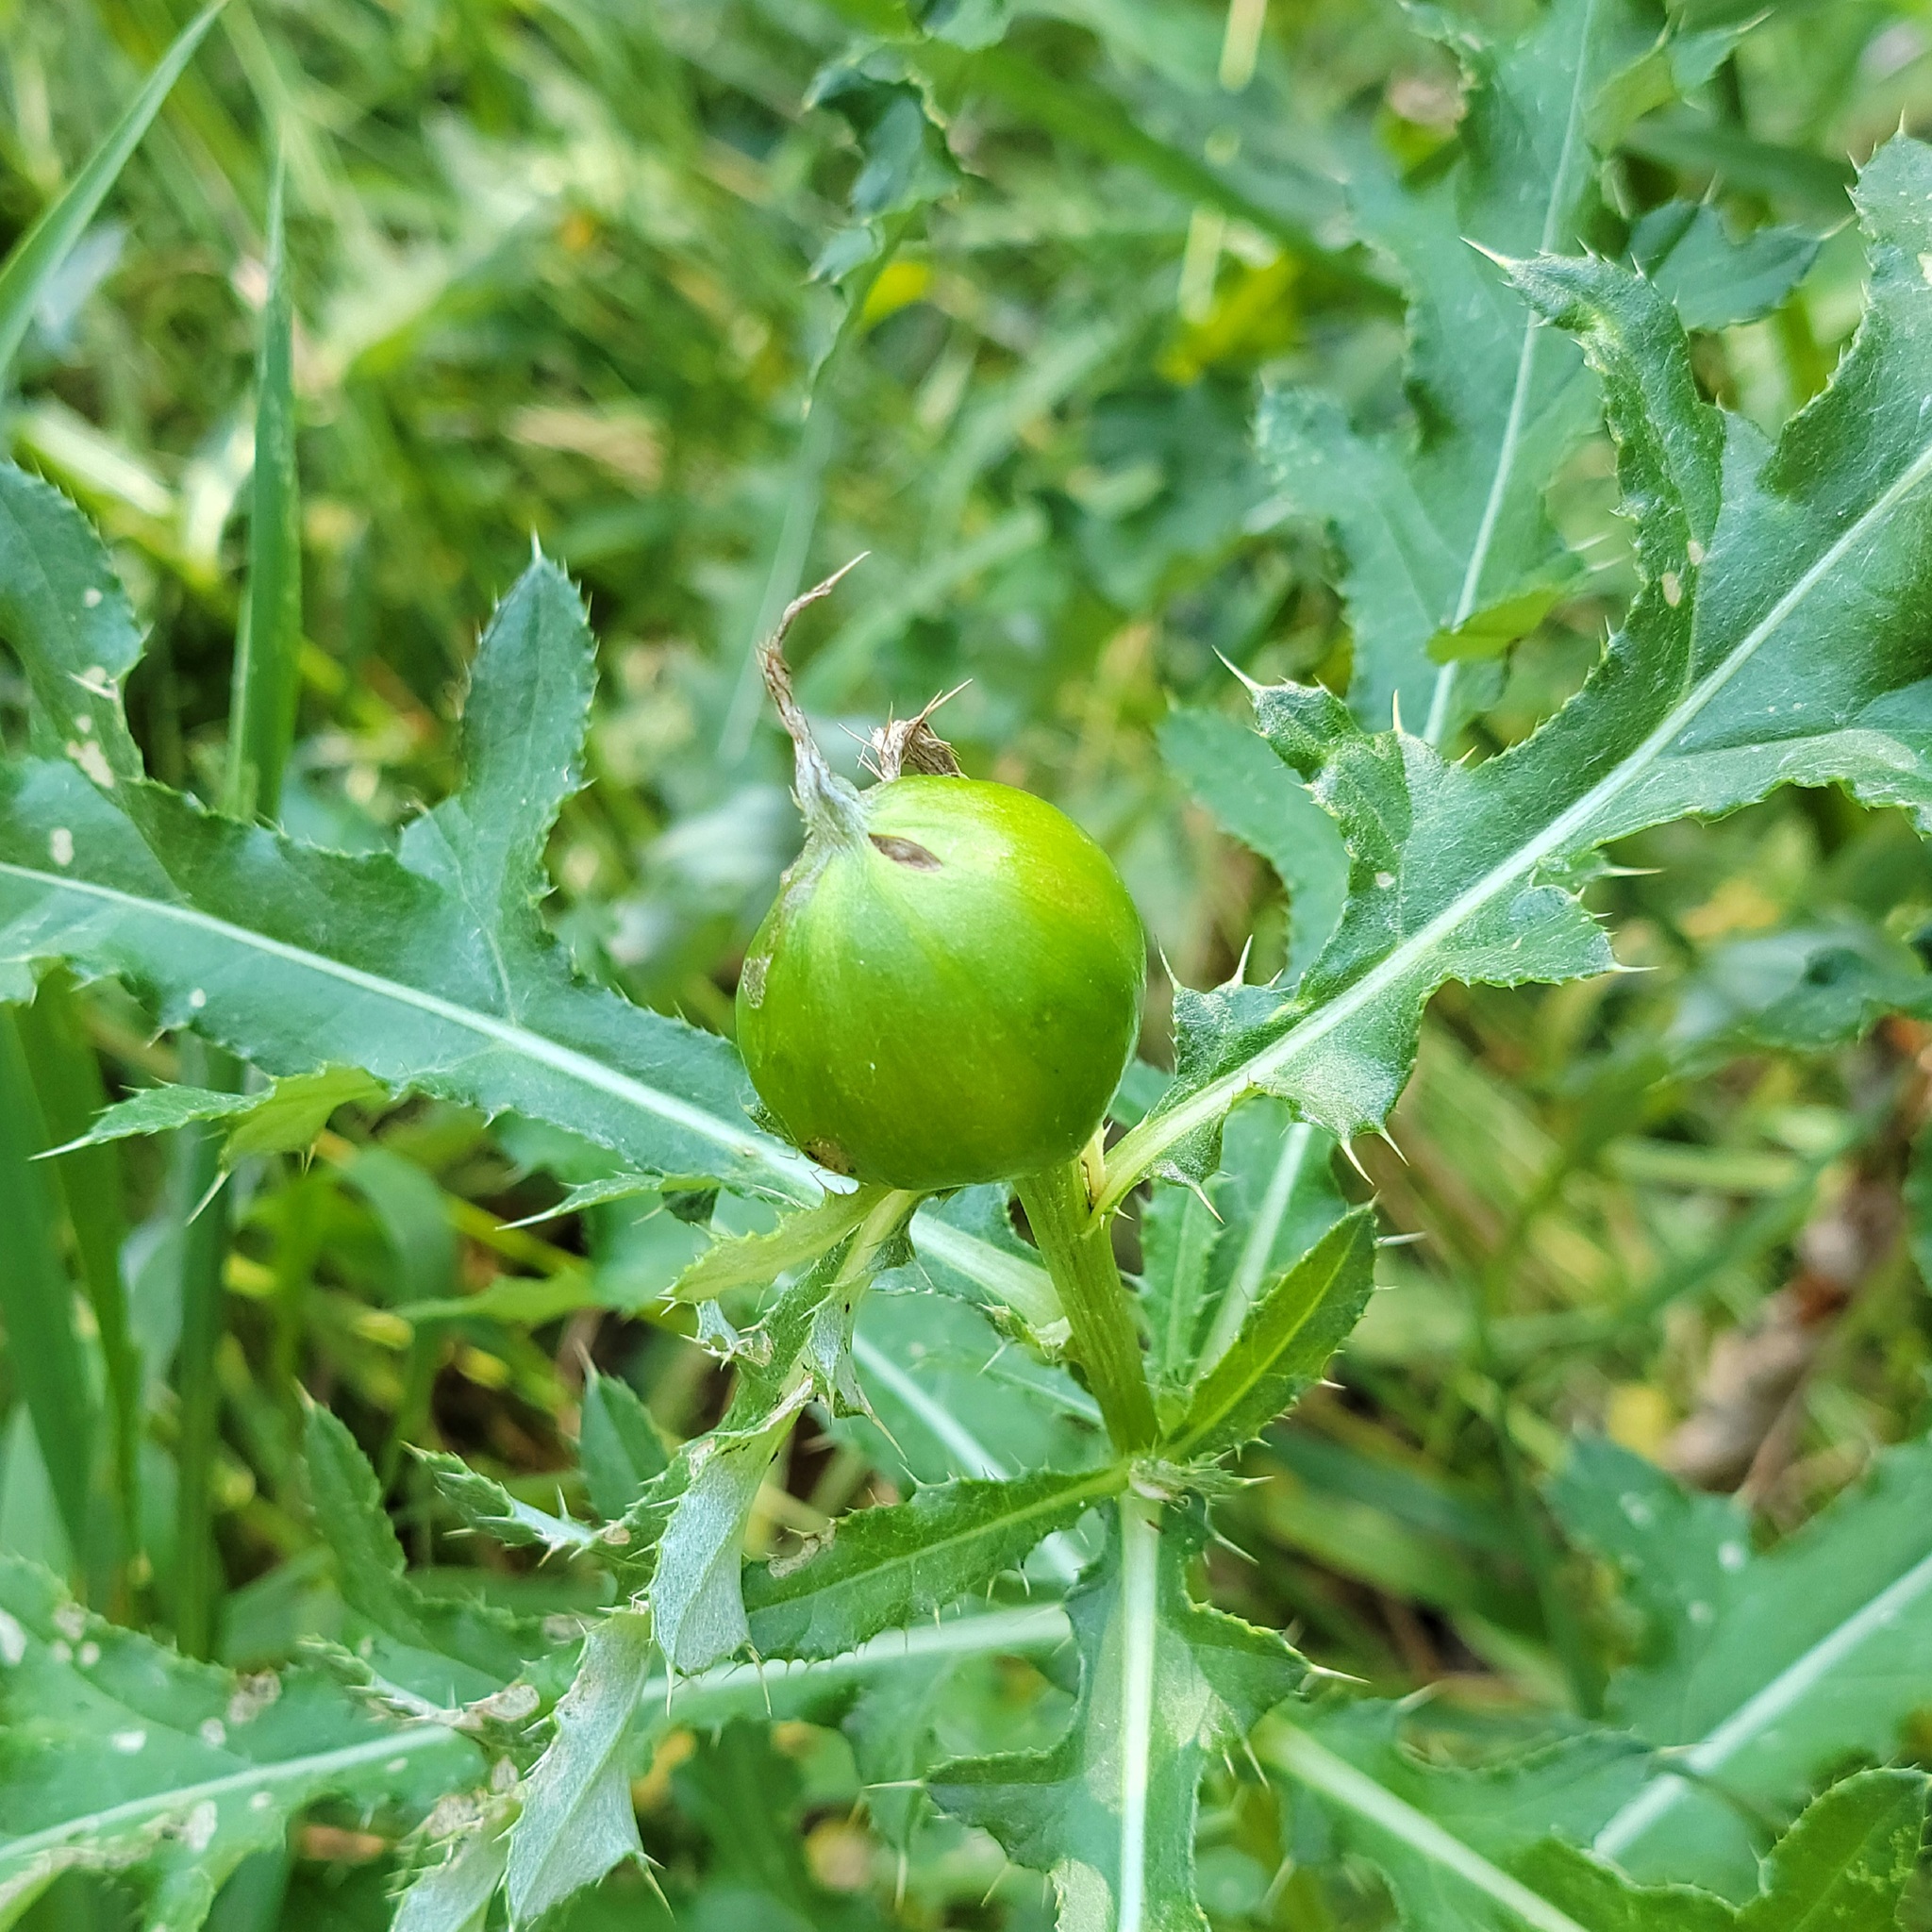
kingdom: Animalia
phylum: Arthropoda
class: Insecta
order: Diptera
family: Tephritidae
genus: Urophora
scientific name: Urophora cardui
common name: Fruit fly
